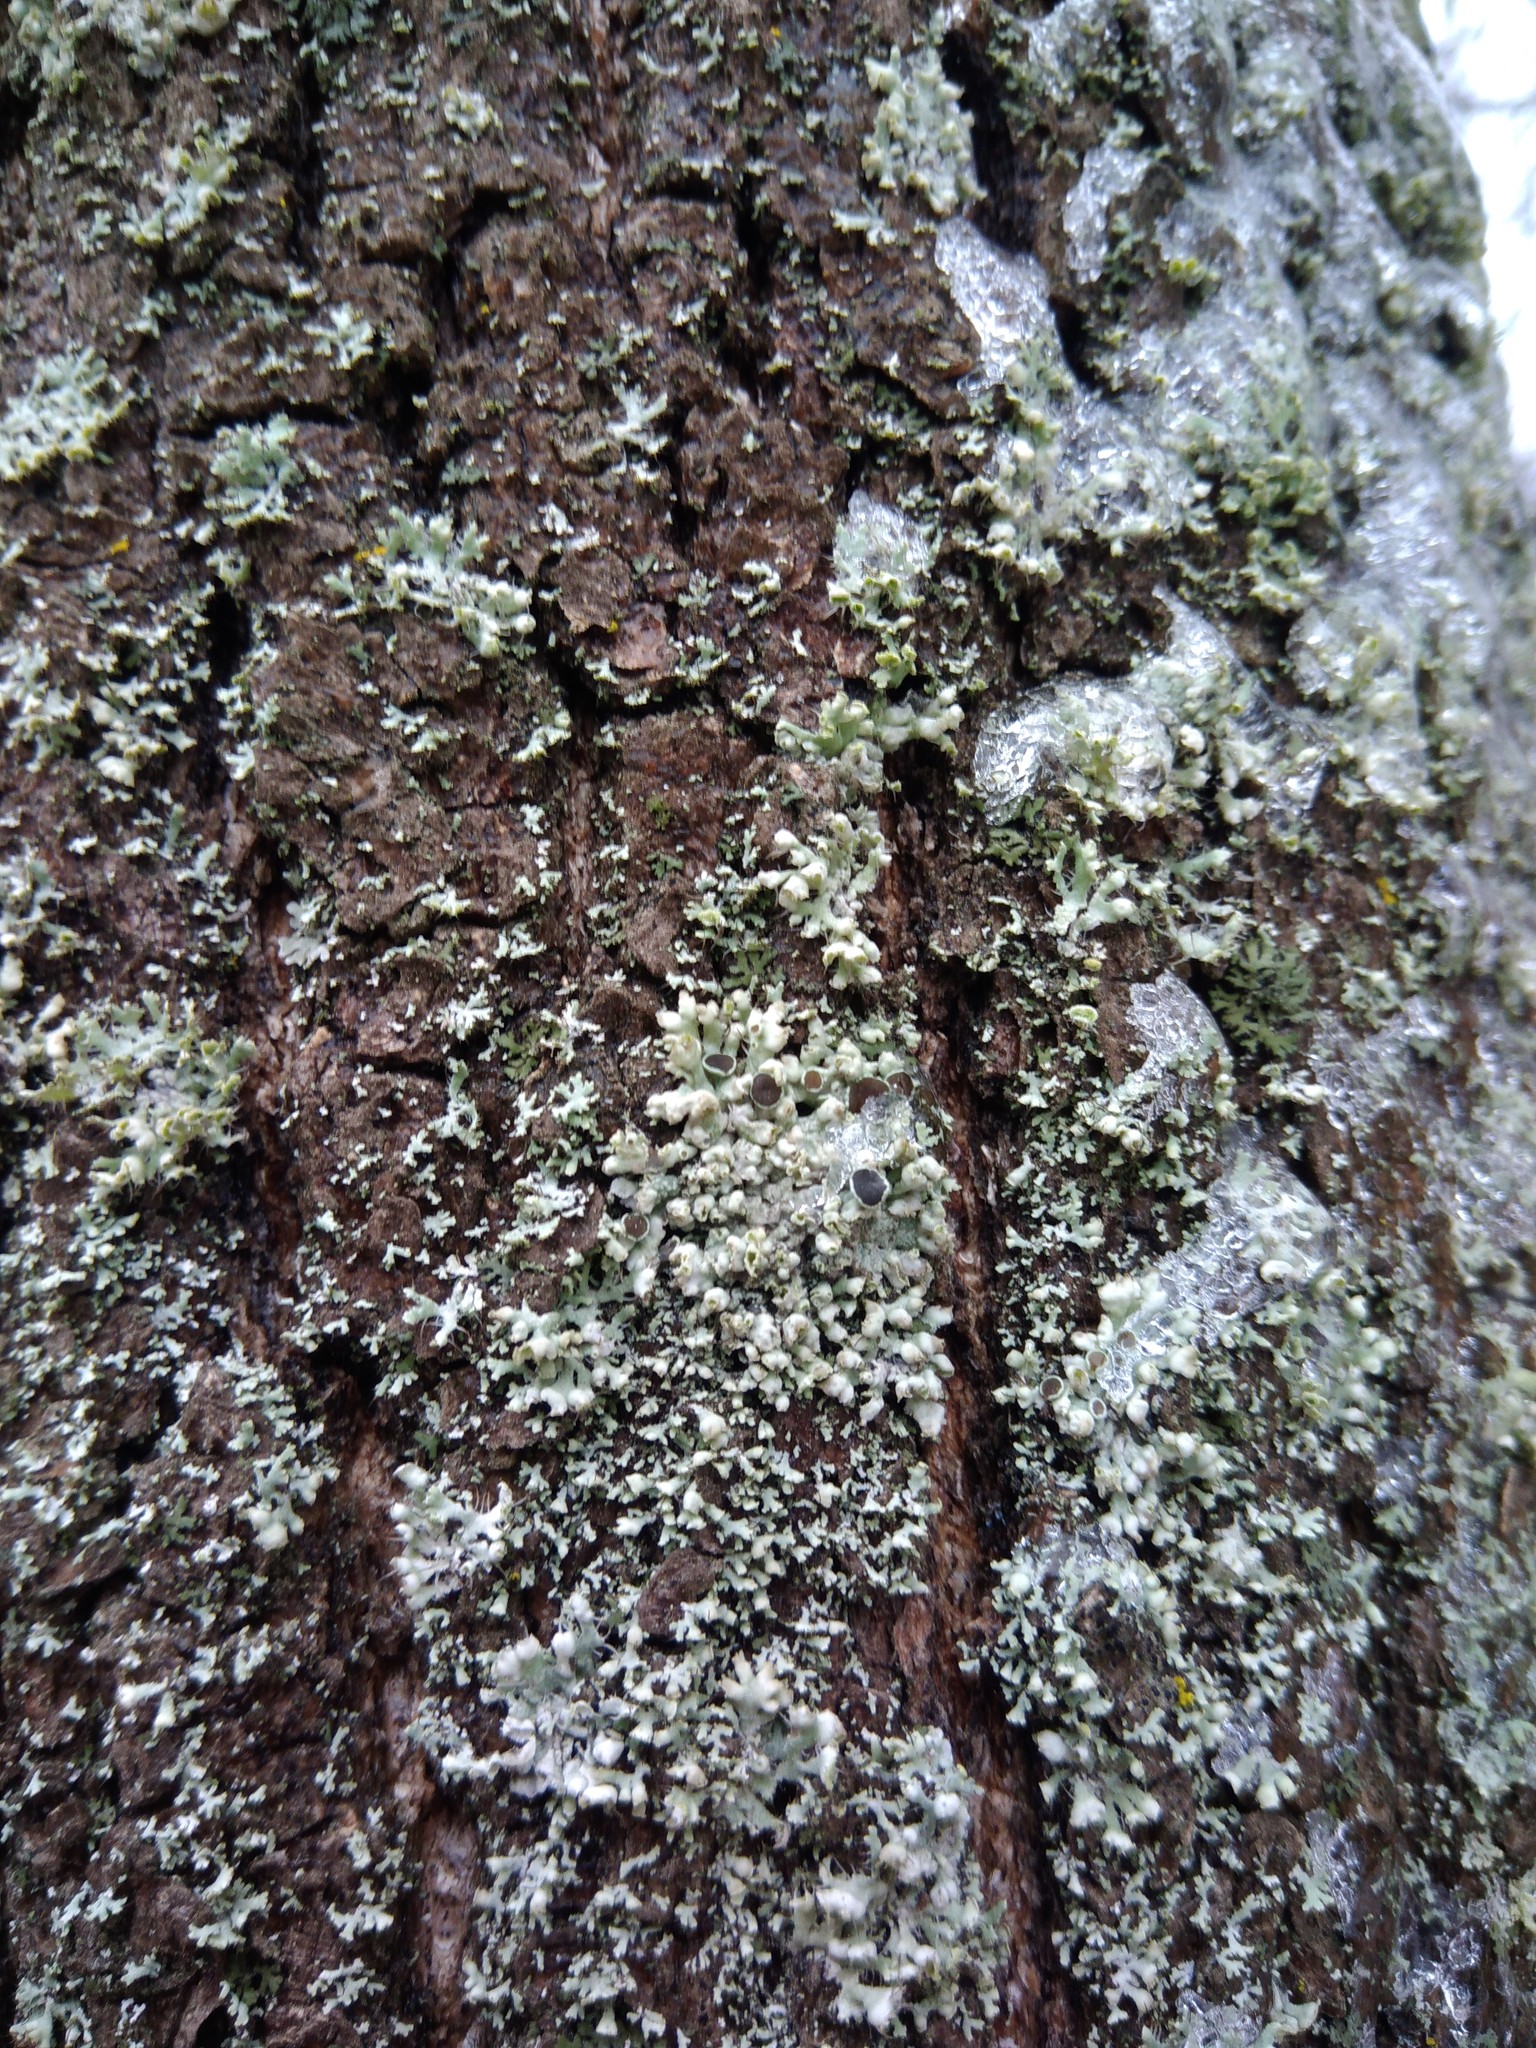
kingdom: Fungi
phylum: Ascomycota
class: Lecanoromycetes
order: Caliciales
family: Physciaceae
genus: Physcia
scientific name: Physcia adscendens
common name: Hooded rosette lichen
